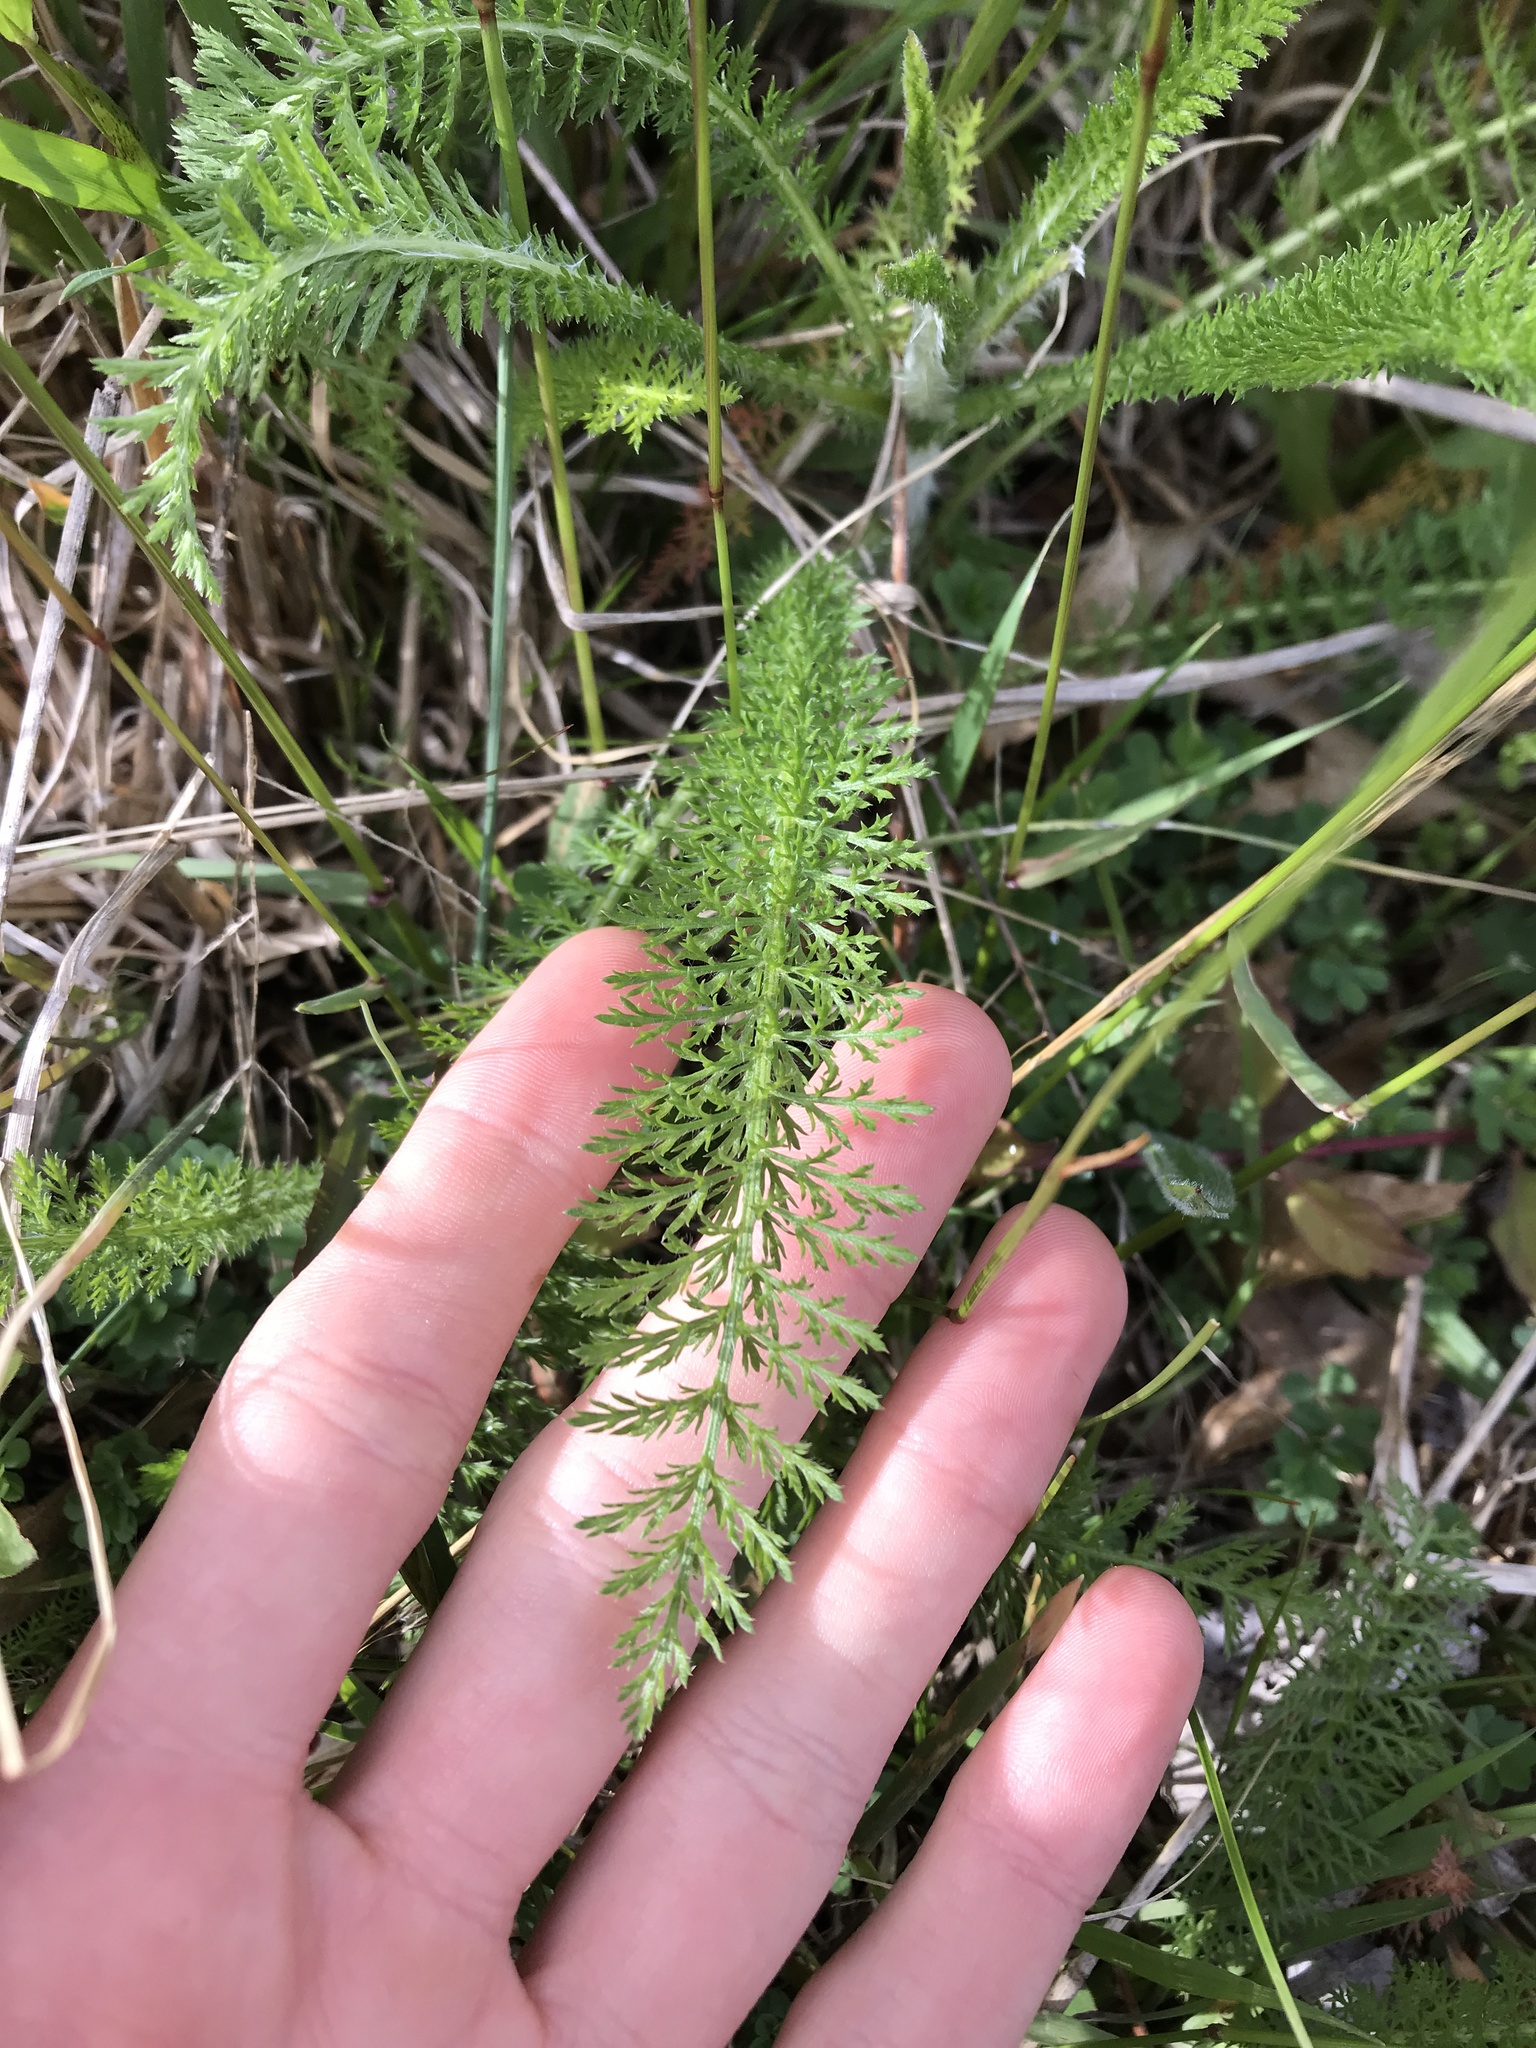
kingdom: Plantae
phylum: Tracheophyta
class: Magnoliopsida
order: Asterales
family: Asteraceae
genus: Achillea
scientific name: Achillea millefolium
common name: Yarrow
